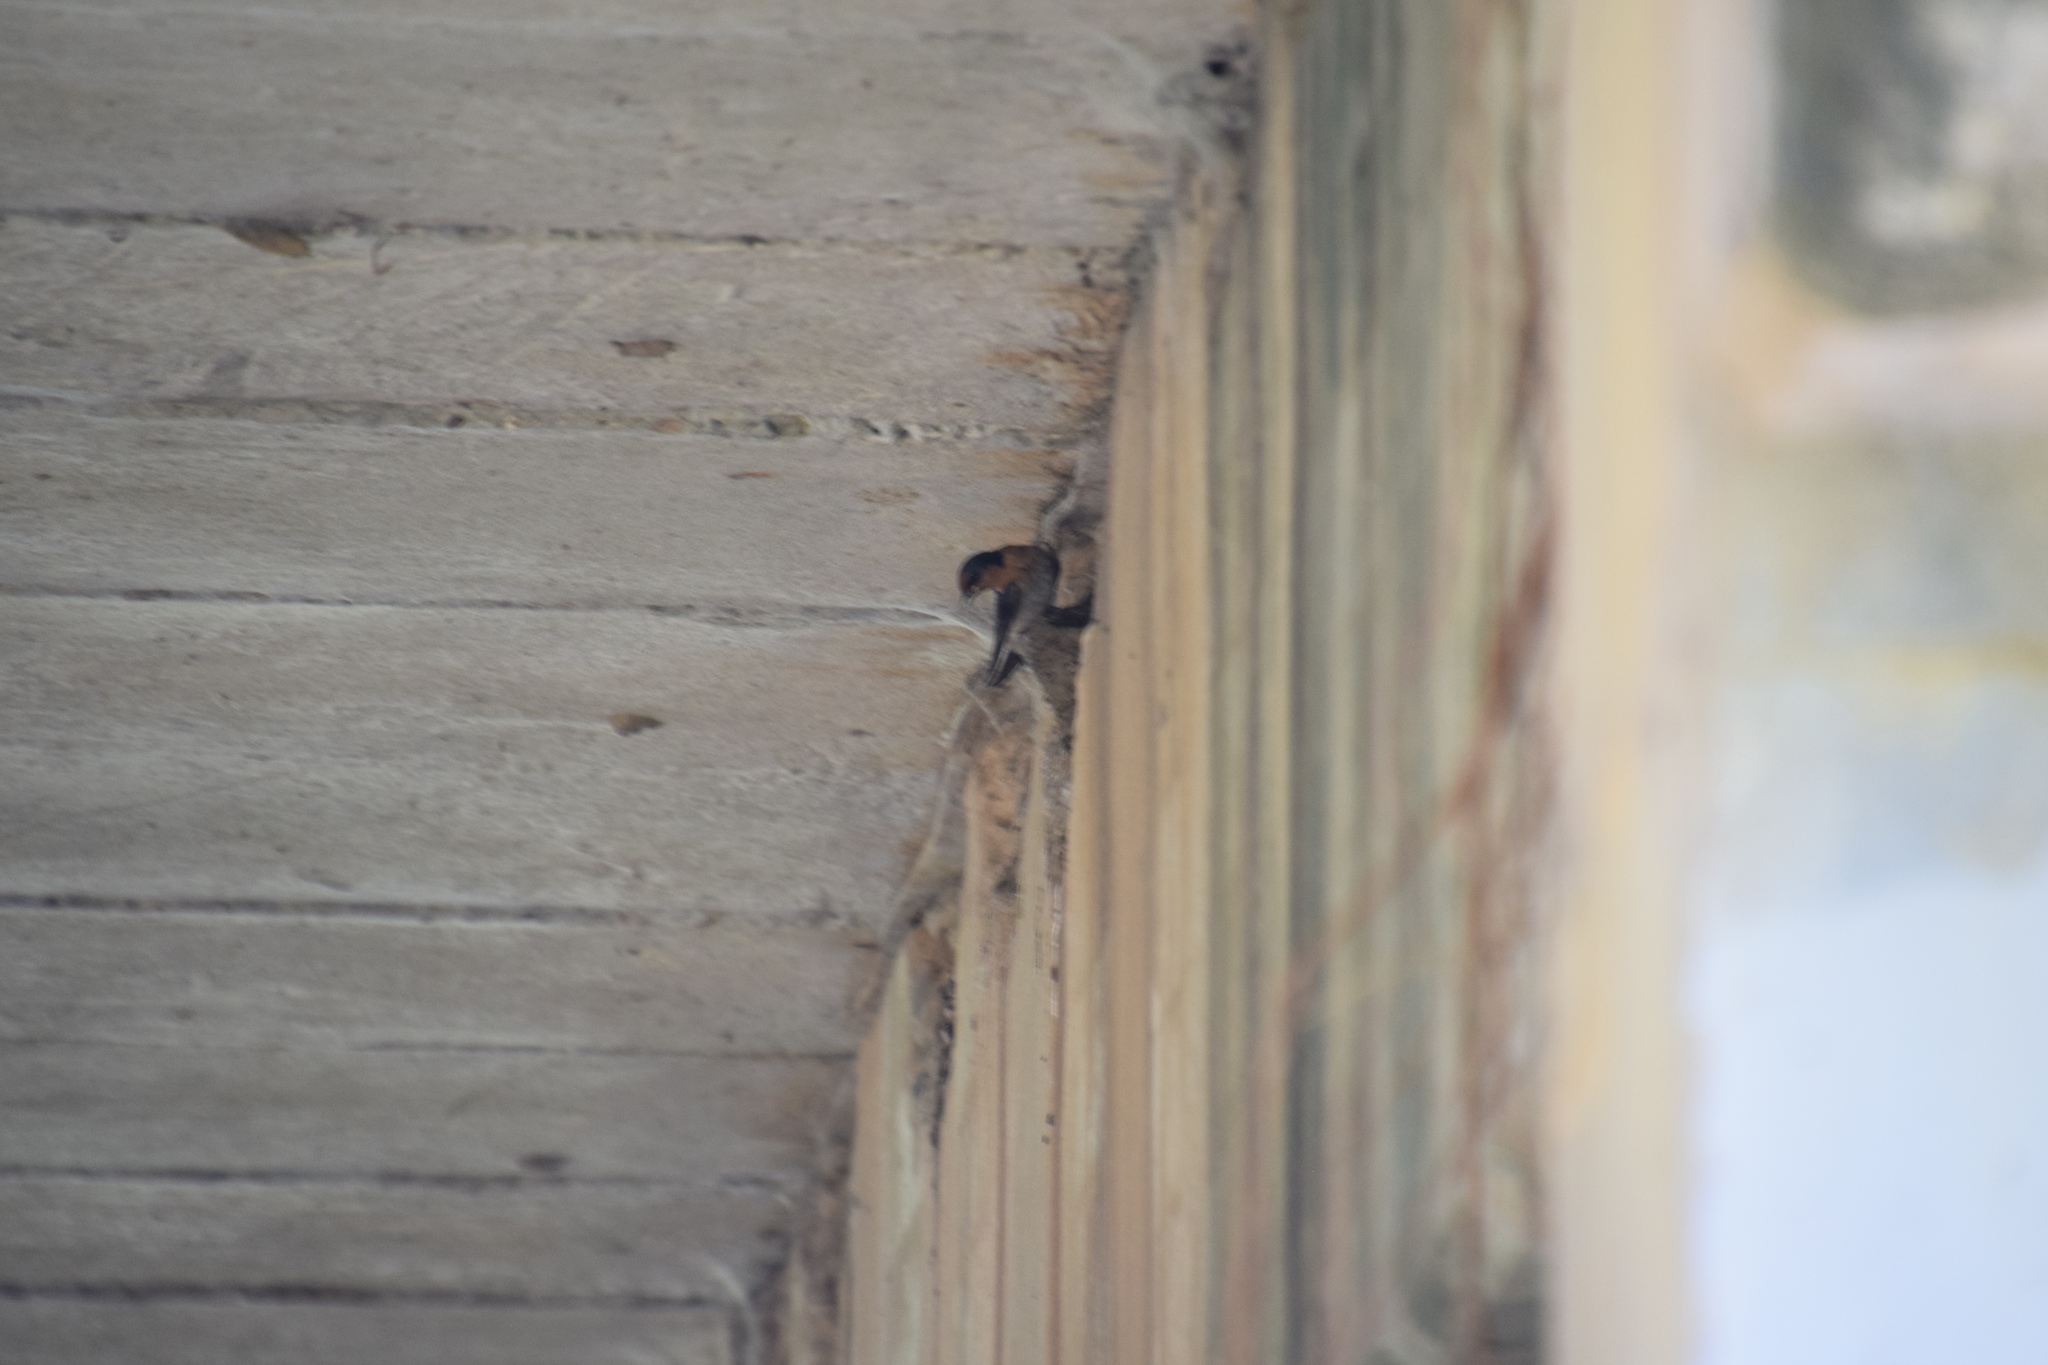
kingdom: Animalia
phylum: Chordata
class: Aves
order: Passeriformes
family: Hirundinidae
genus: Hirundo
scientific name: Hirundo neoxena
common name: Welcome swallow
